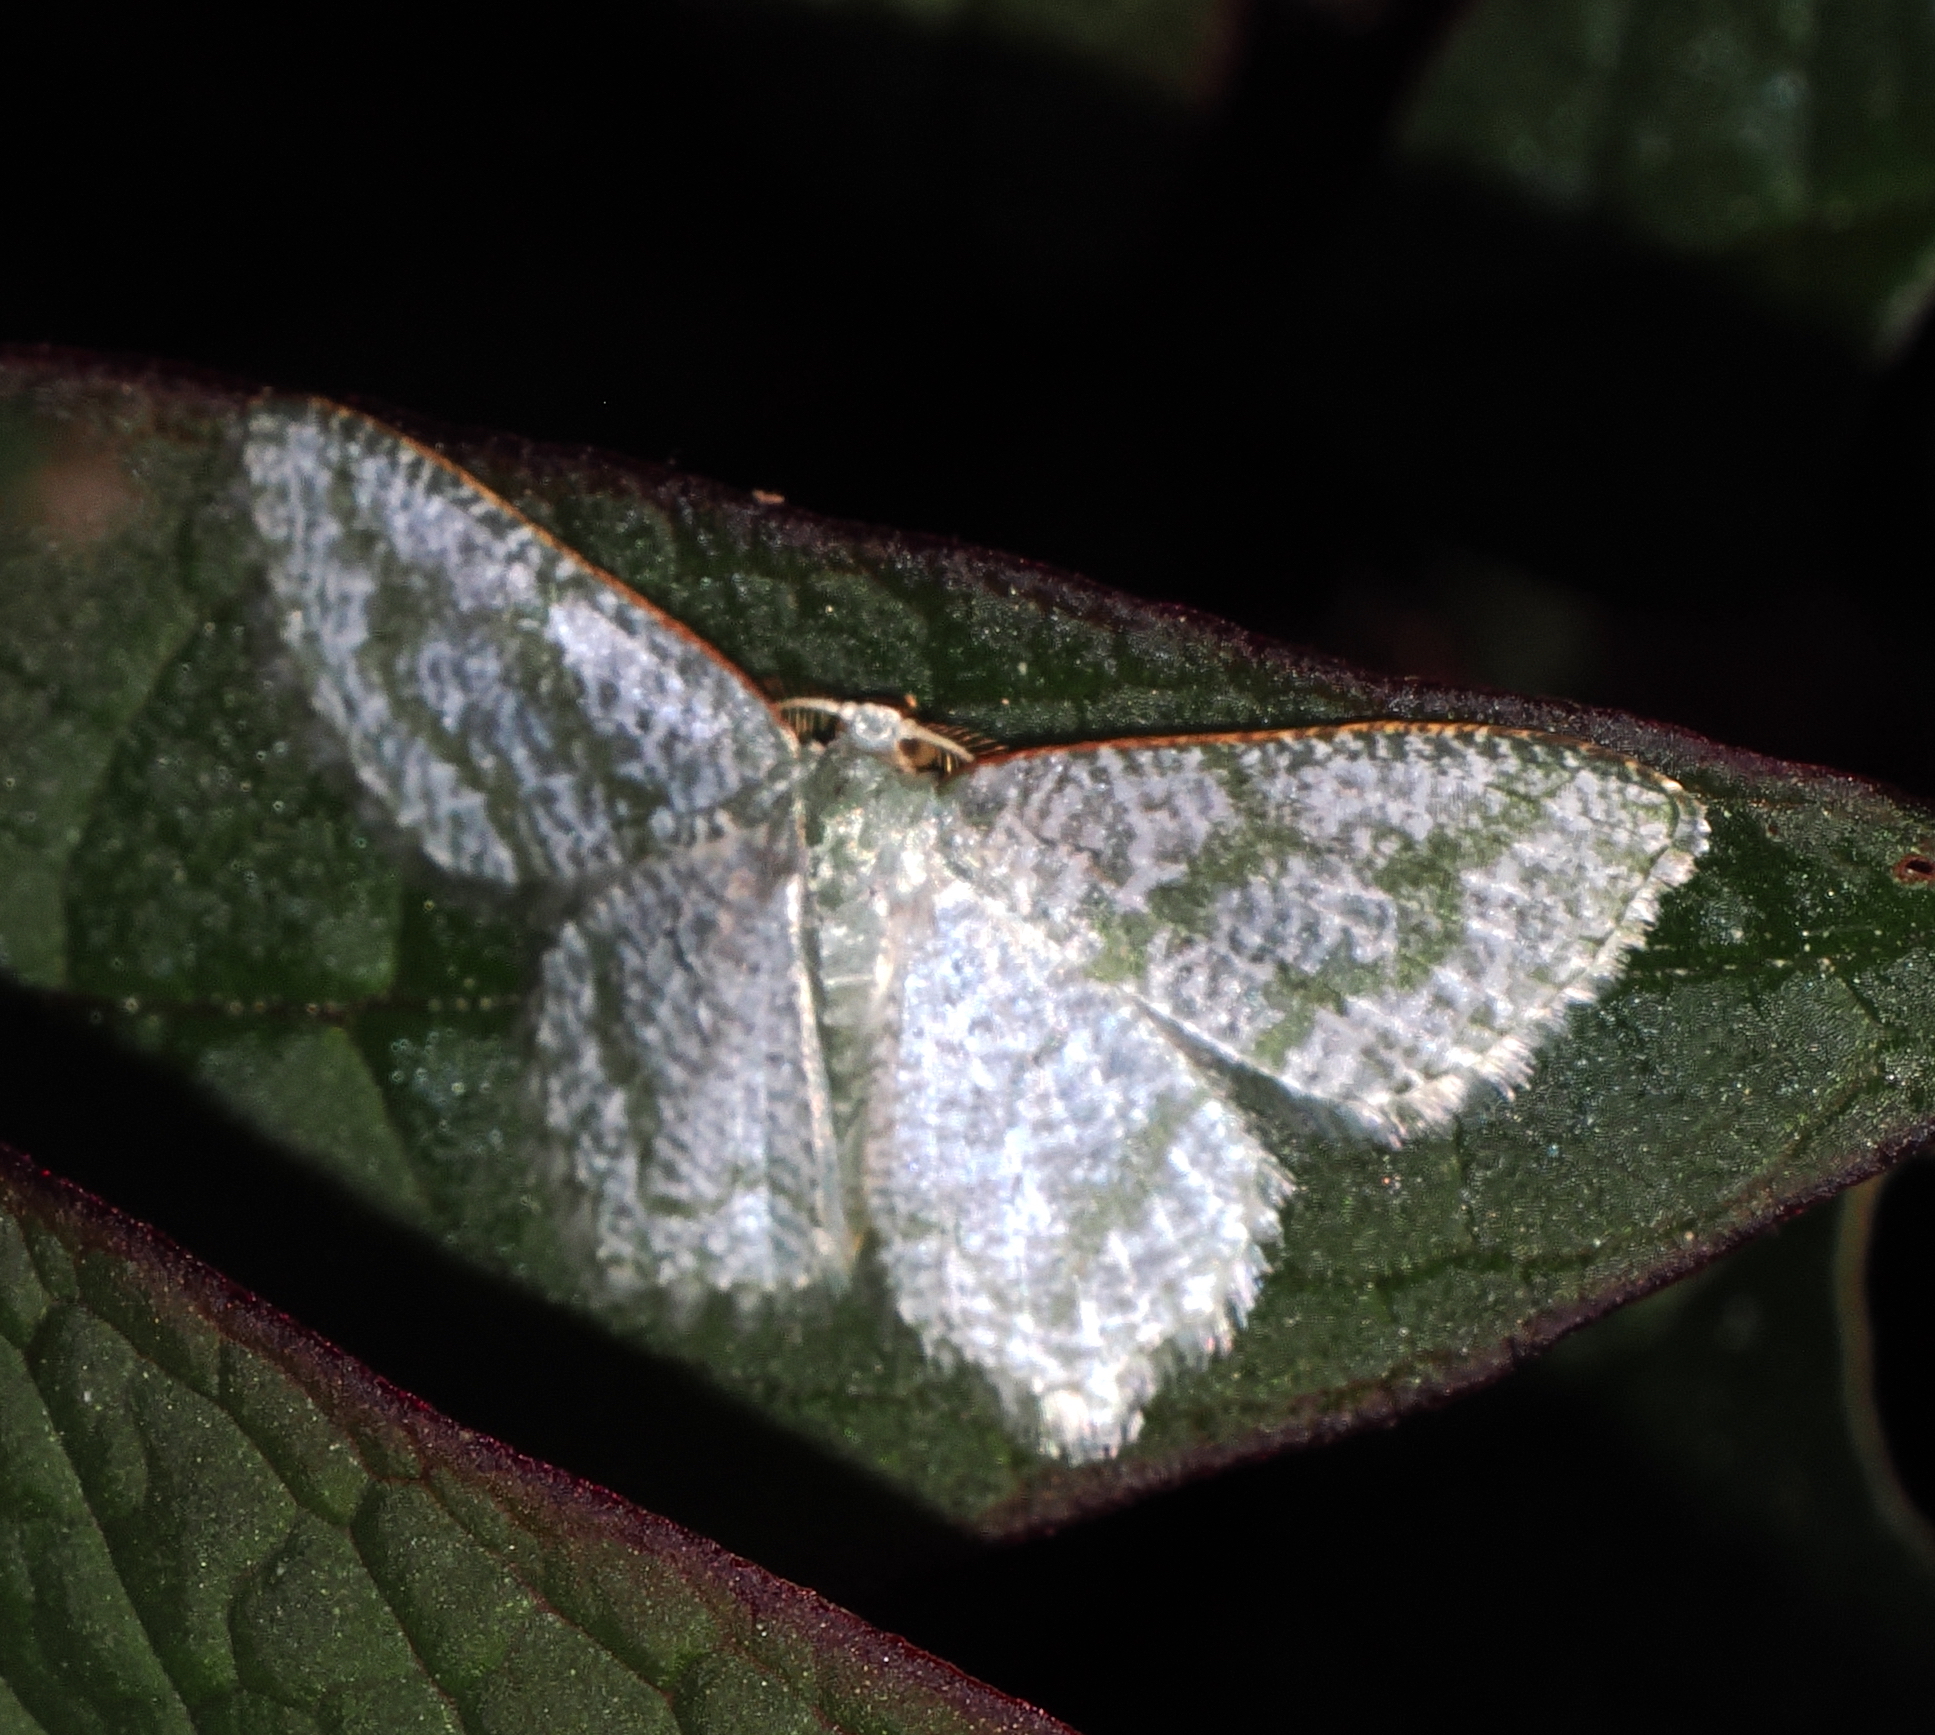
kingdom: Animalia
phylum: Arthropoda
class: Insecta
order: Lepidoptera
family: Geometridae
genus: Chloropteryx
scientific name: Chloropteryx opalaria
